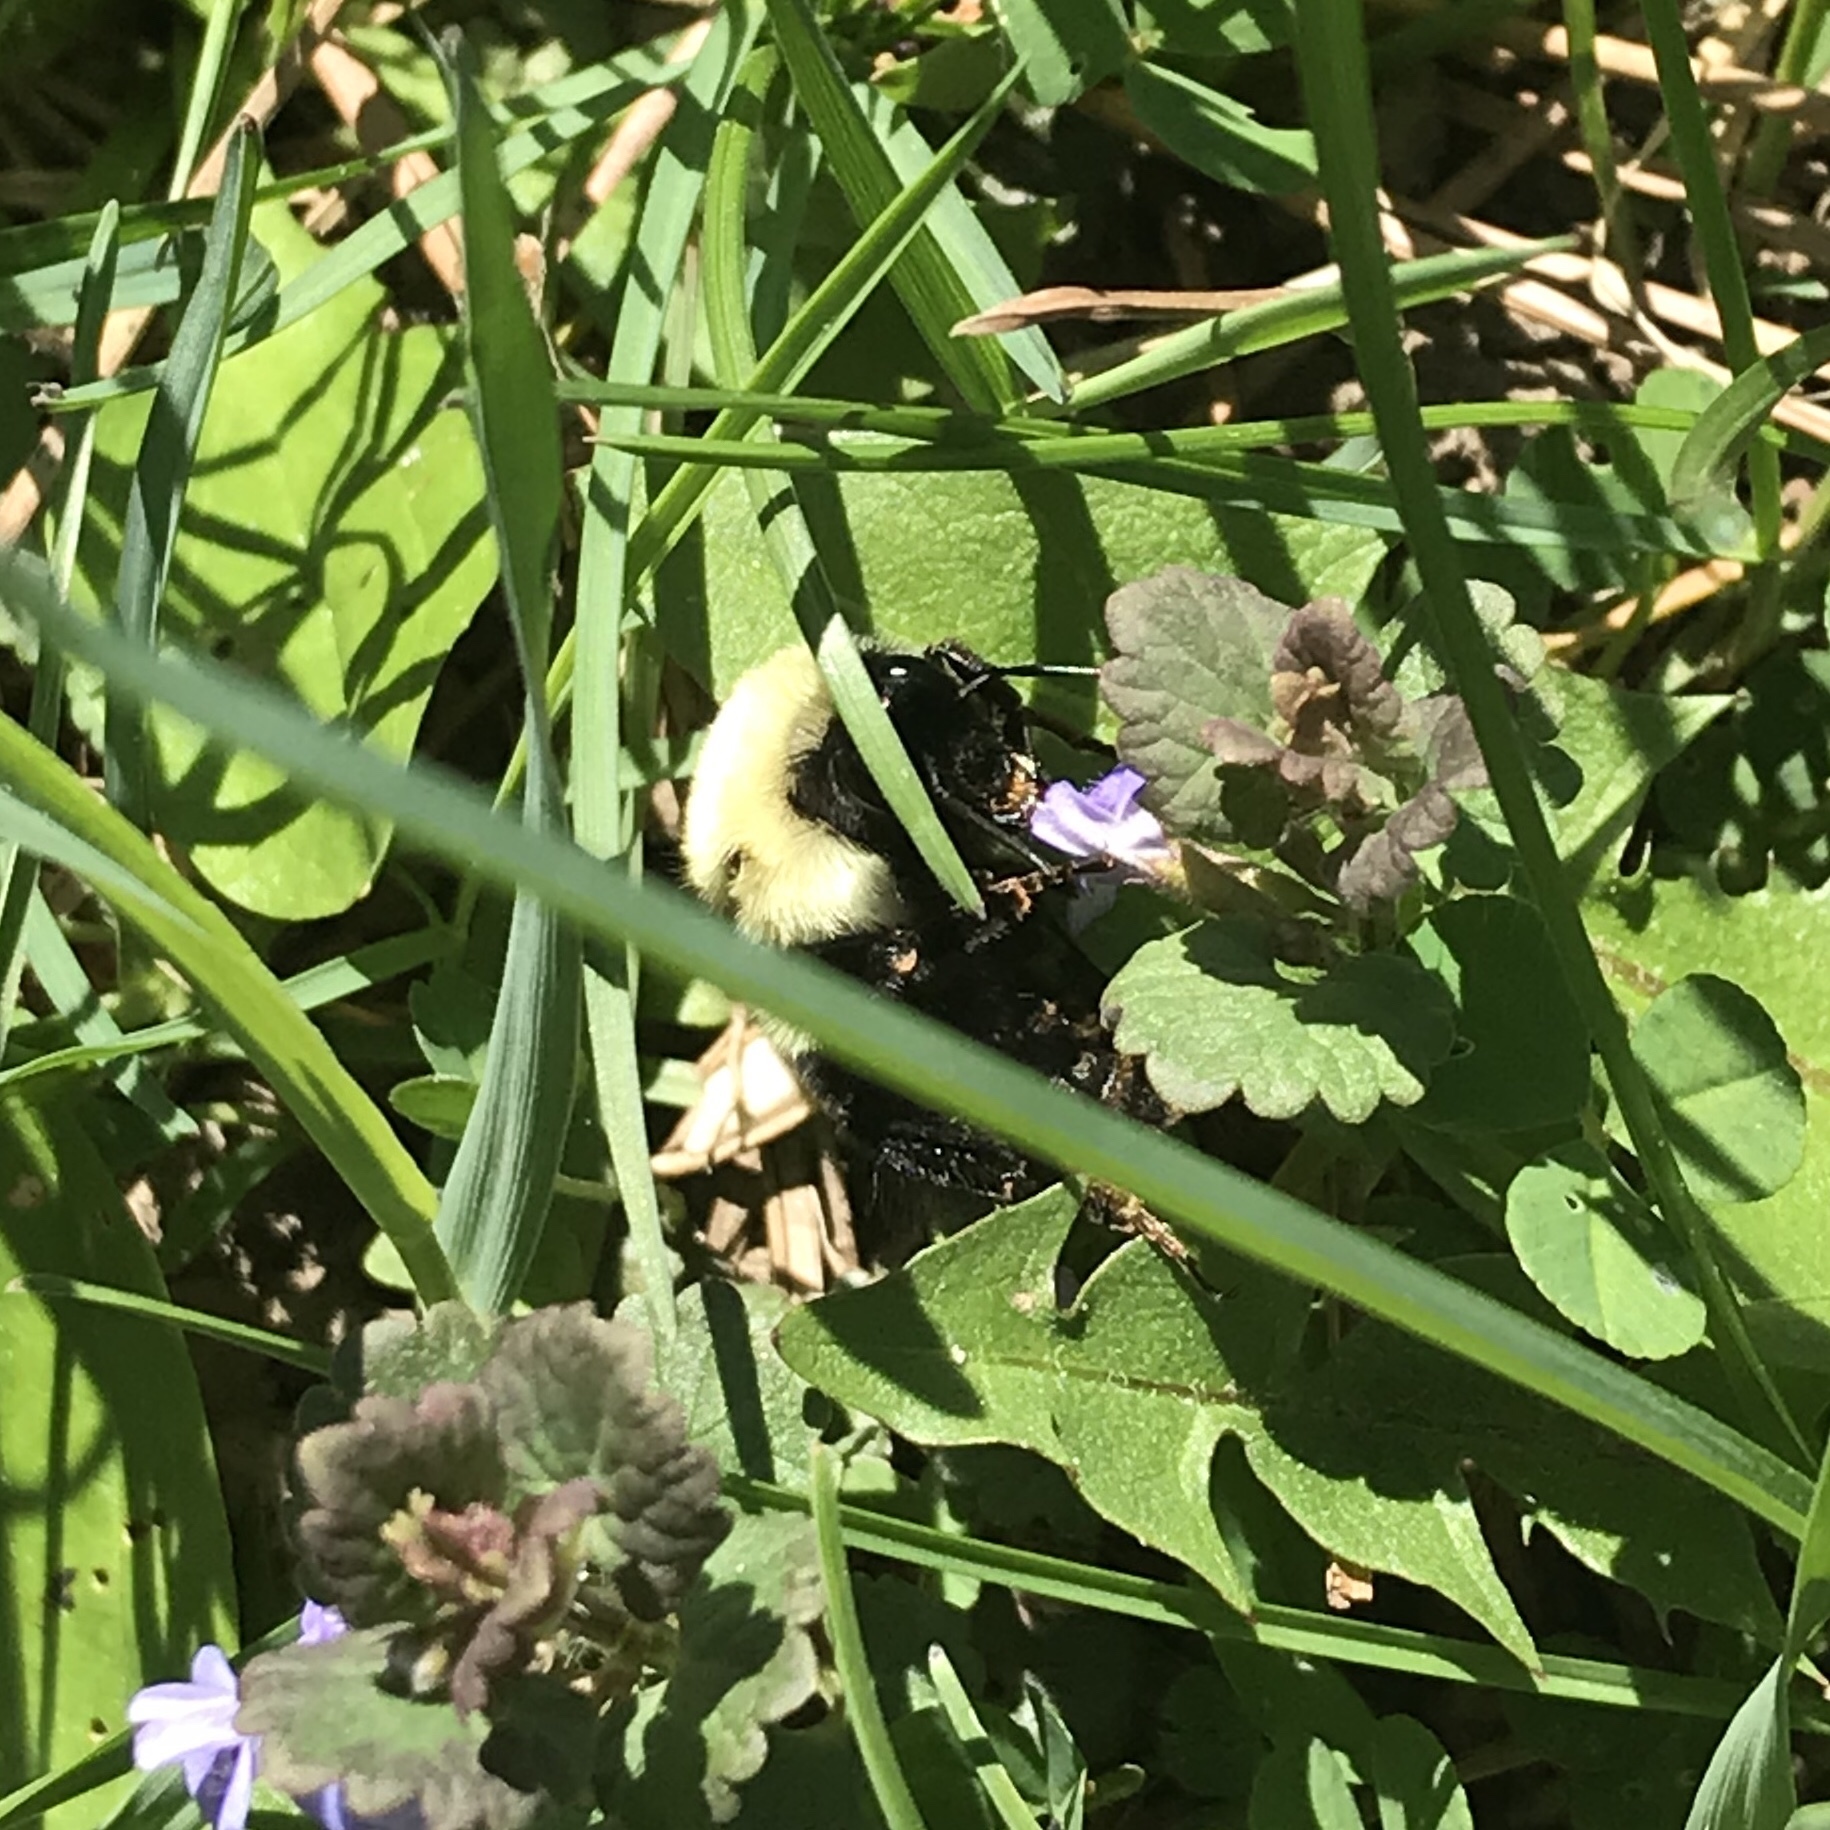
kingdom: Animalia
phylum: Arthropoda
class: Insecta
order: Hymenoptera
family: Apidae
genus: Bombus
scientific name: Bombus bimaculatus
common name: Two-spotted bumble bee
